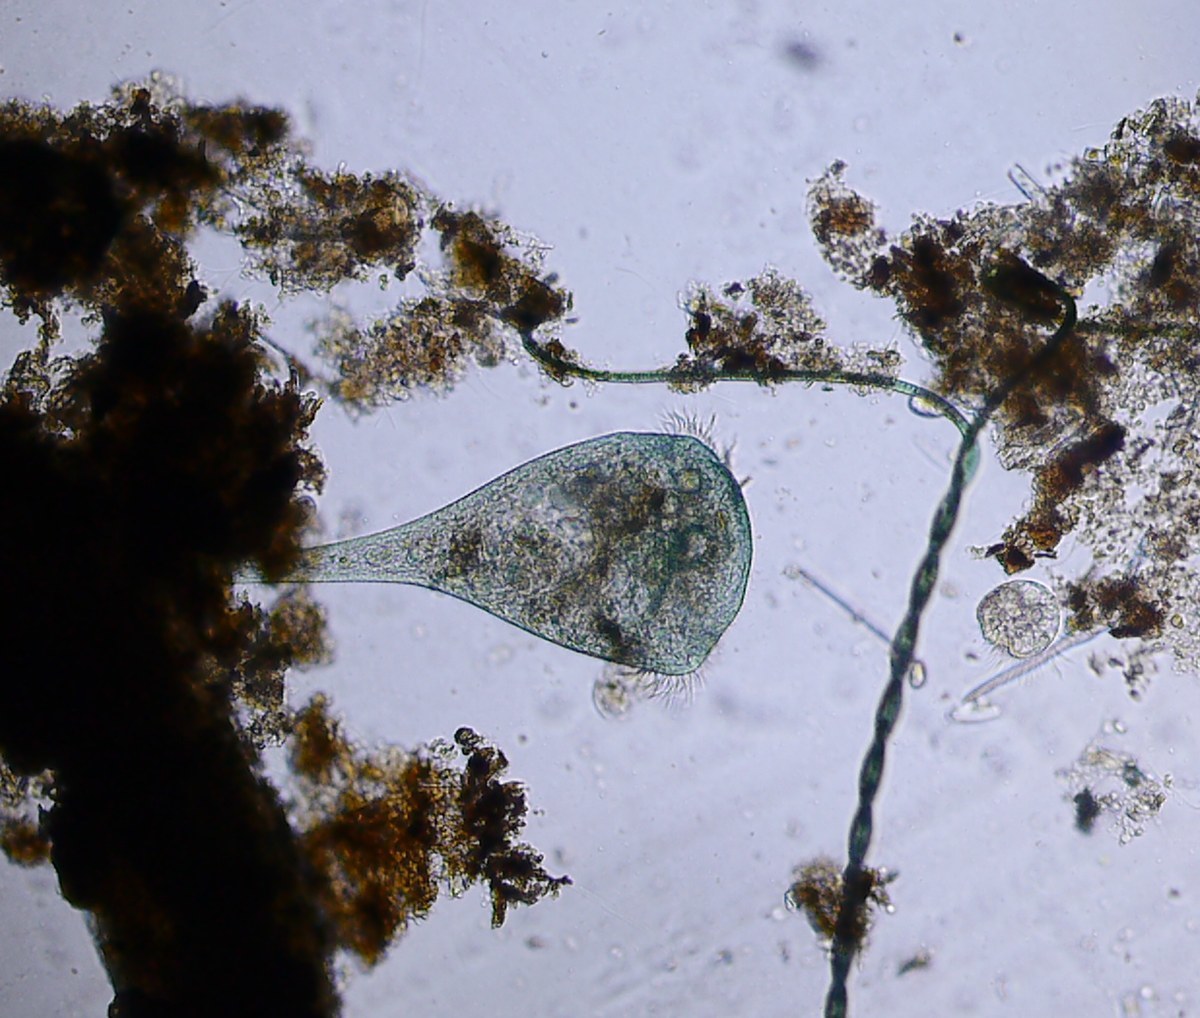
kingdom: Chromista
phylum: Ciliophora
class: Heterotrichea
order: Heterotrichida
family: Stentoridae
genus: Stentor
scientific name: Stentor coeruleus
